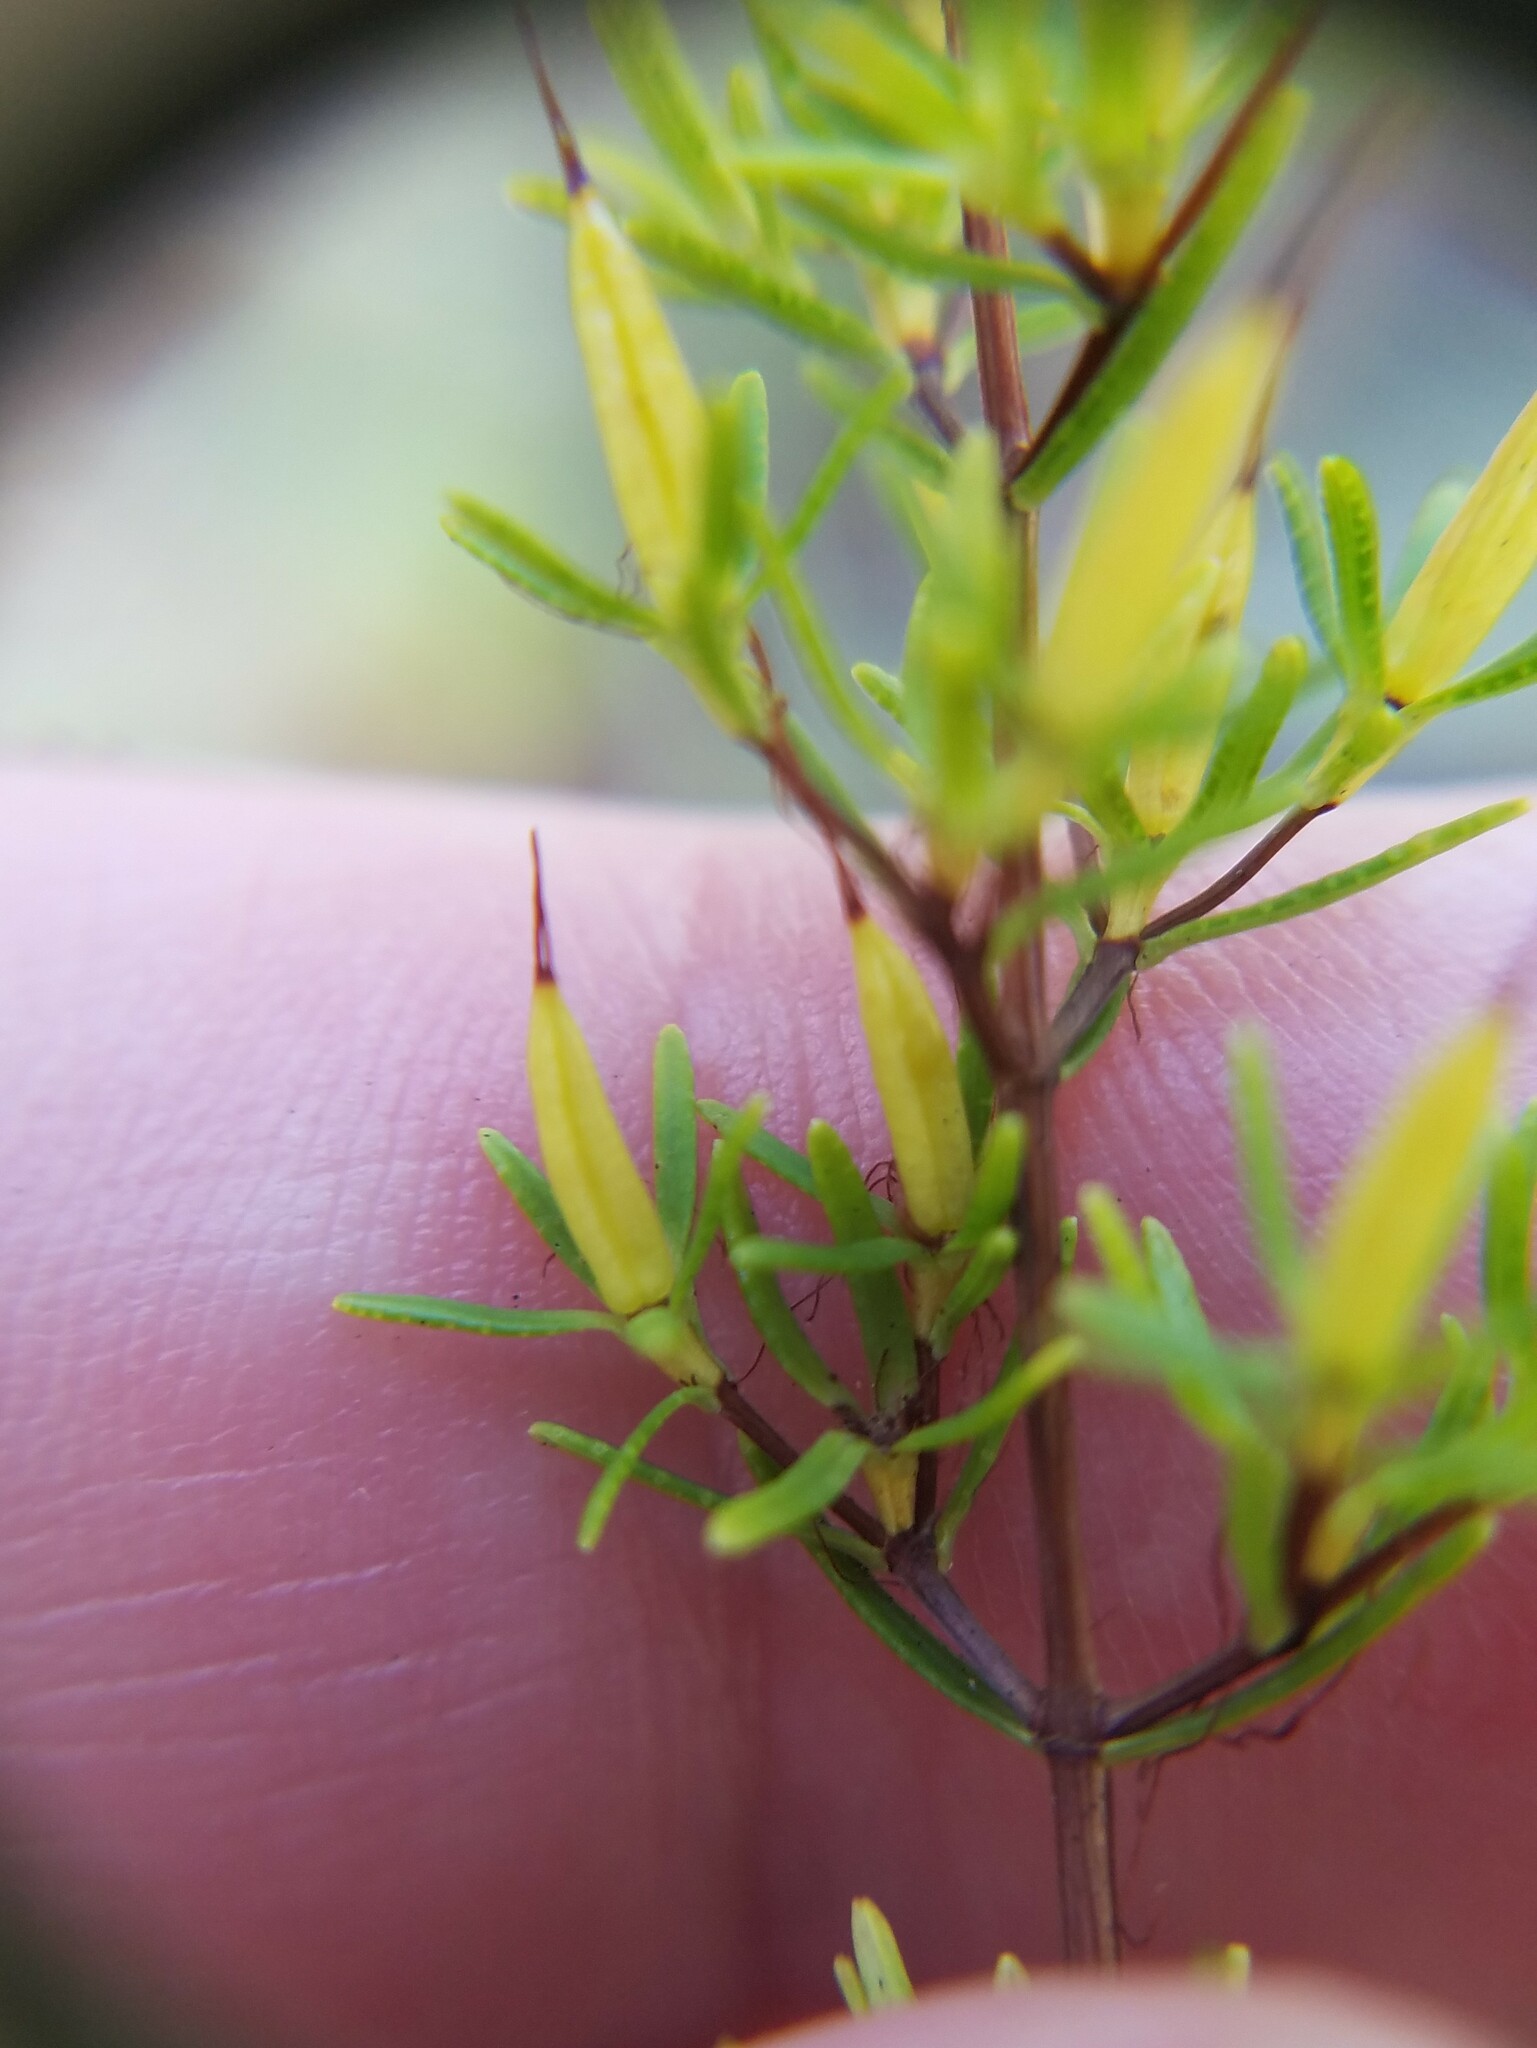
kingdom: Plantae
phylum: Tracheophyta
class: Magnoliopsida
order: Malpighiales
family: Hypericaceae
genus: Hypericum
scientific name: Hypericum fasciculatum
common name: Peelbark st. john's wort
